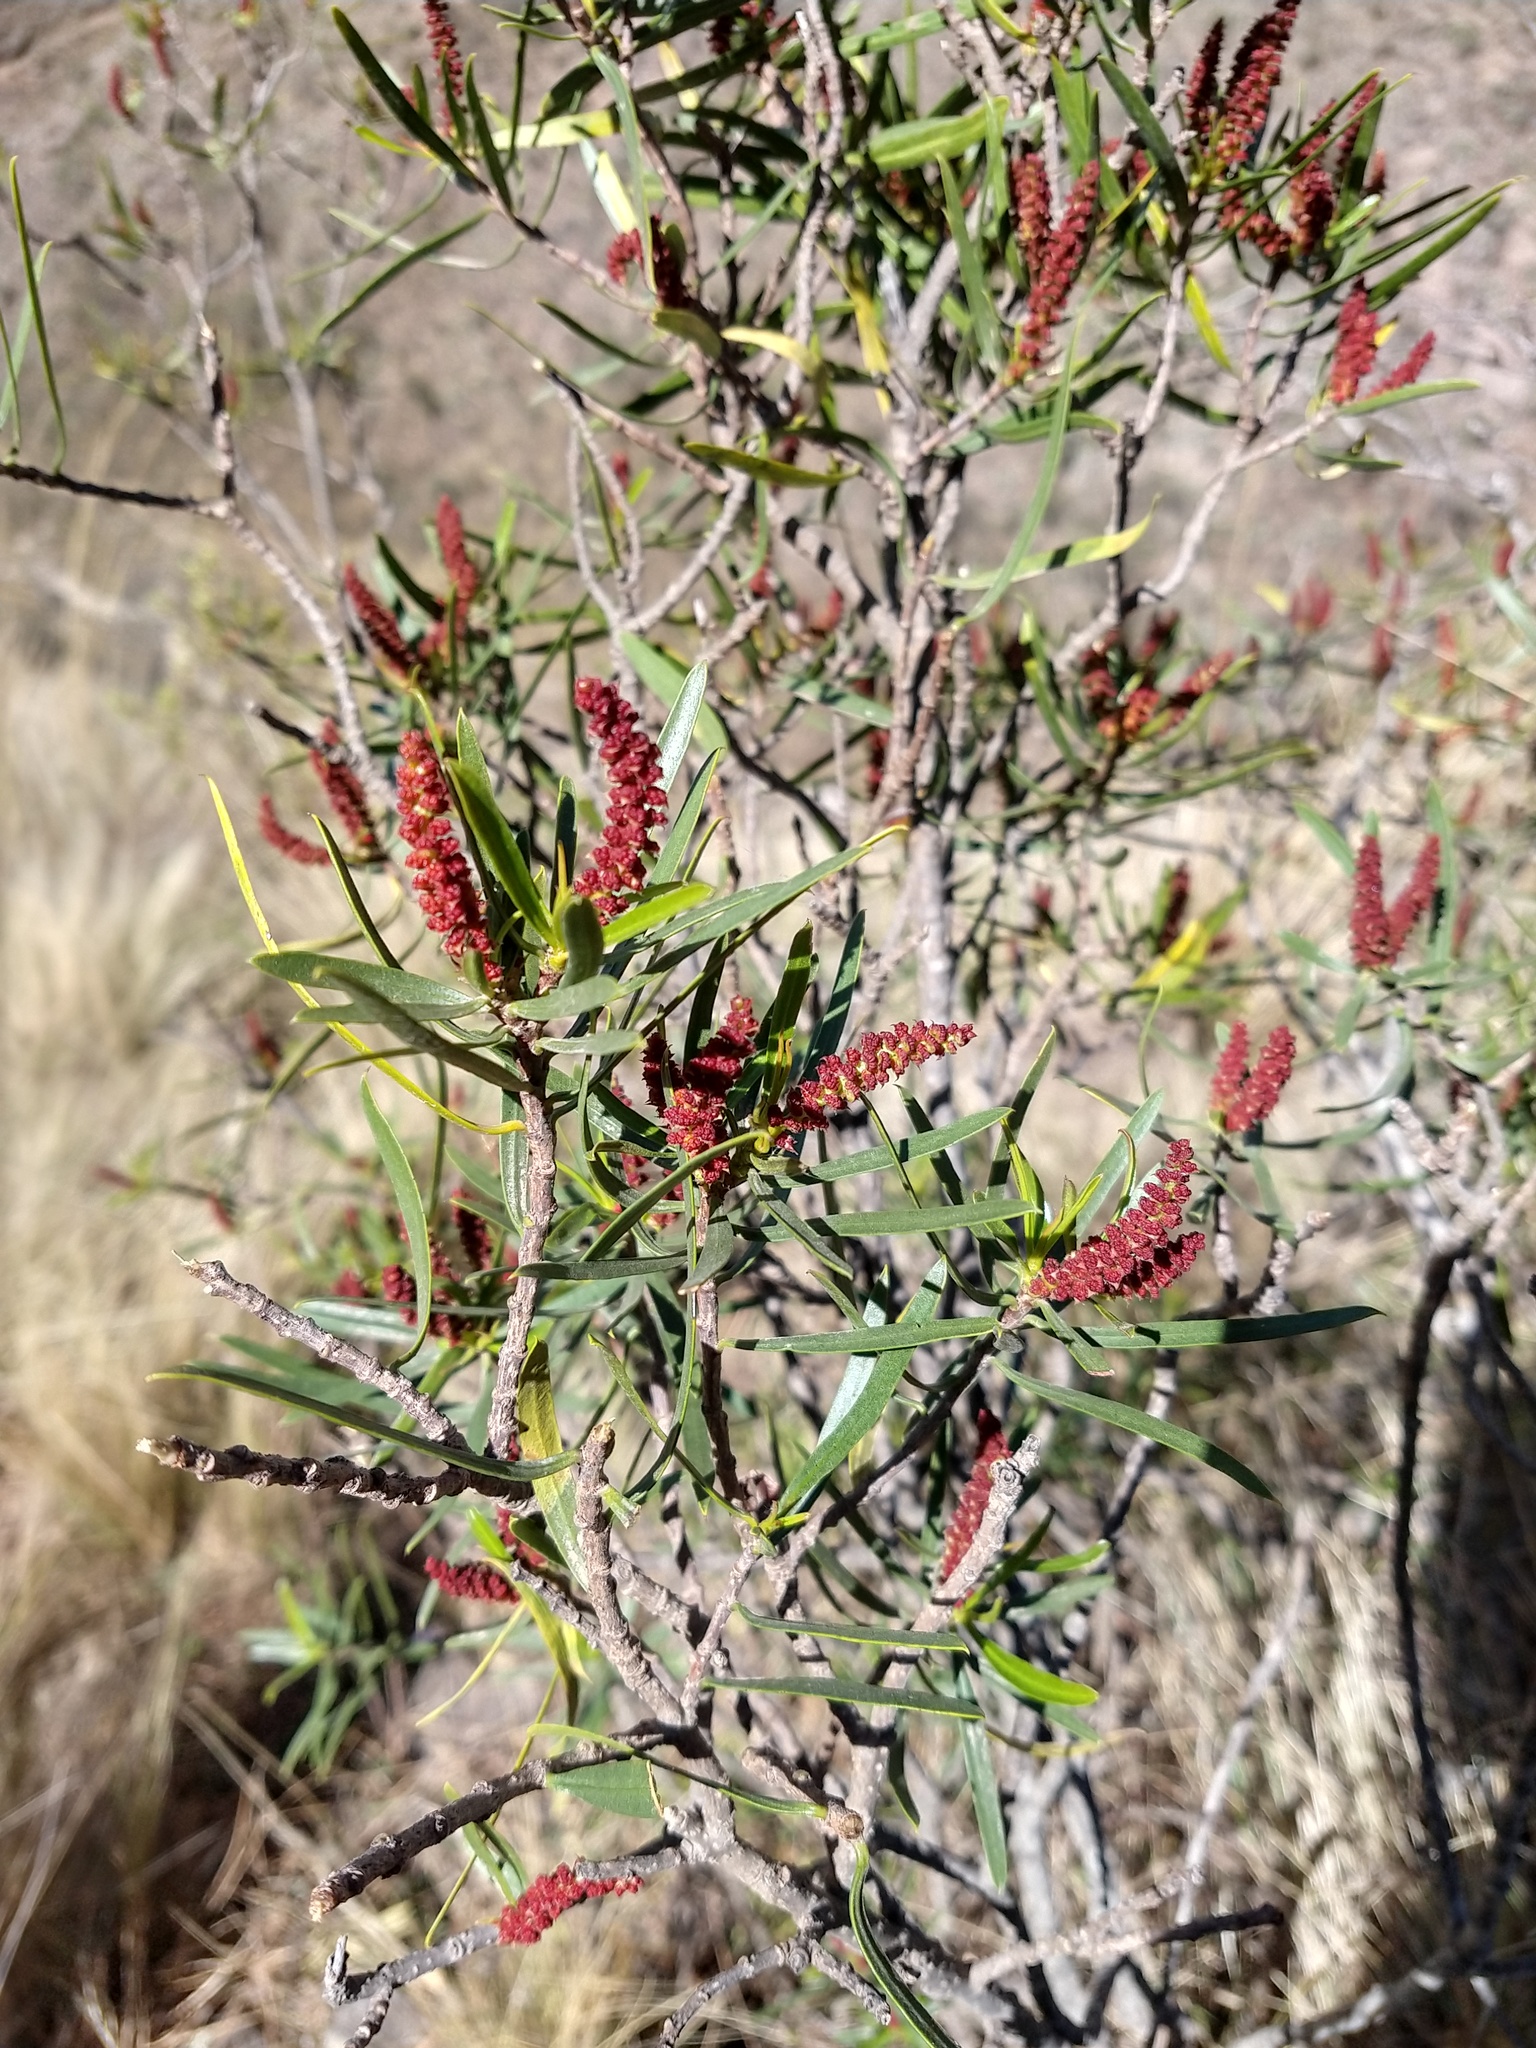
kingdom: Plantae
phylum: Tracheophyta
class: Magnoliopsida
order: Malpighiales
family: Euphorbiaceae
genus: Colliguaja
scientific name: Colliguaja integerrima
